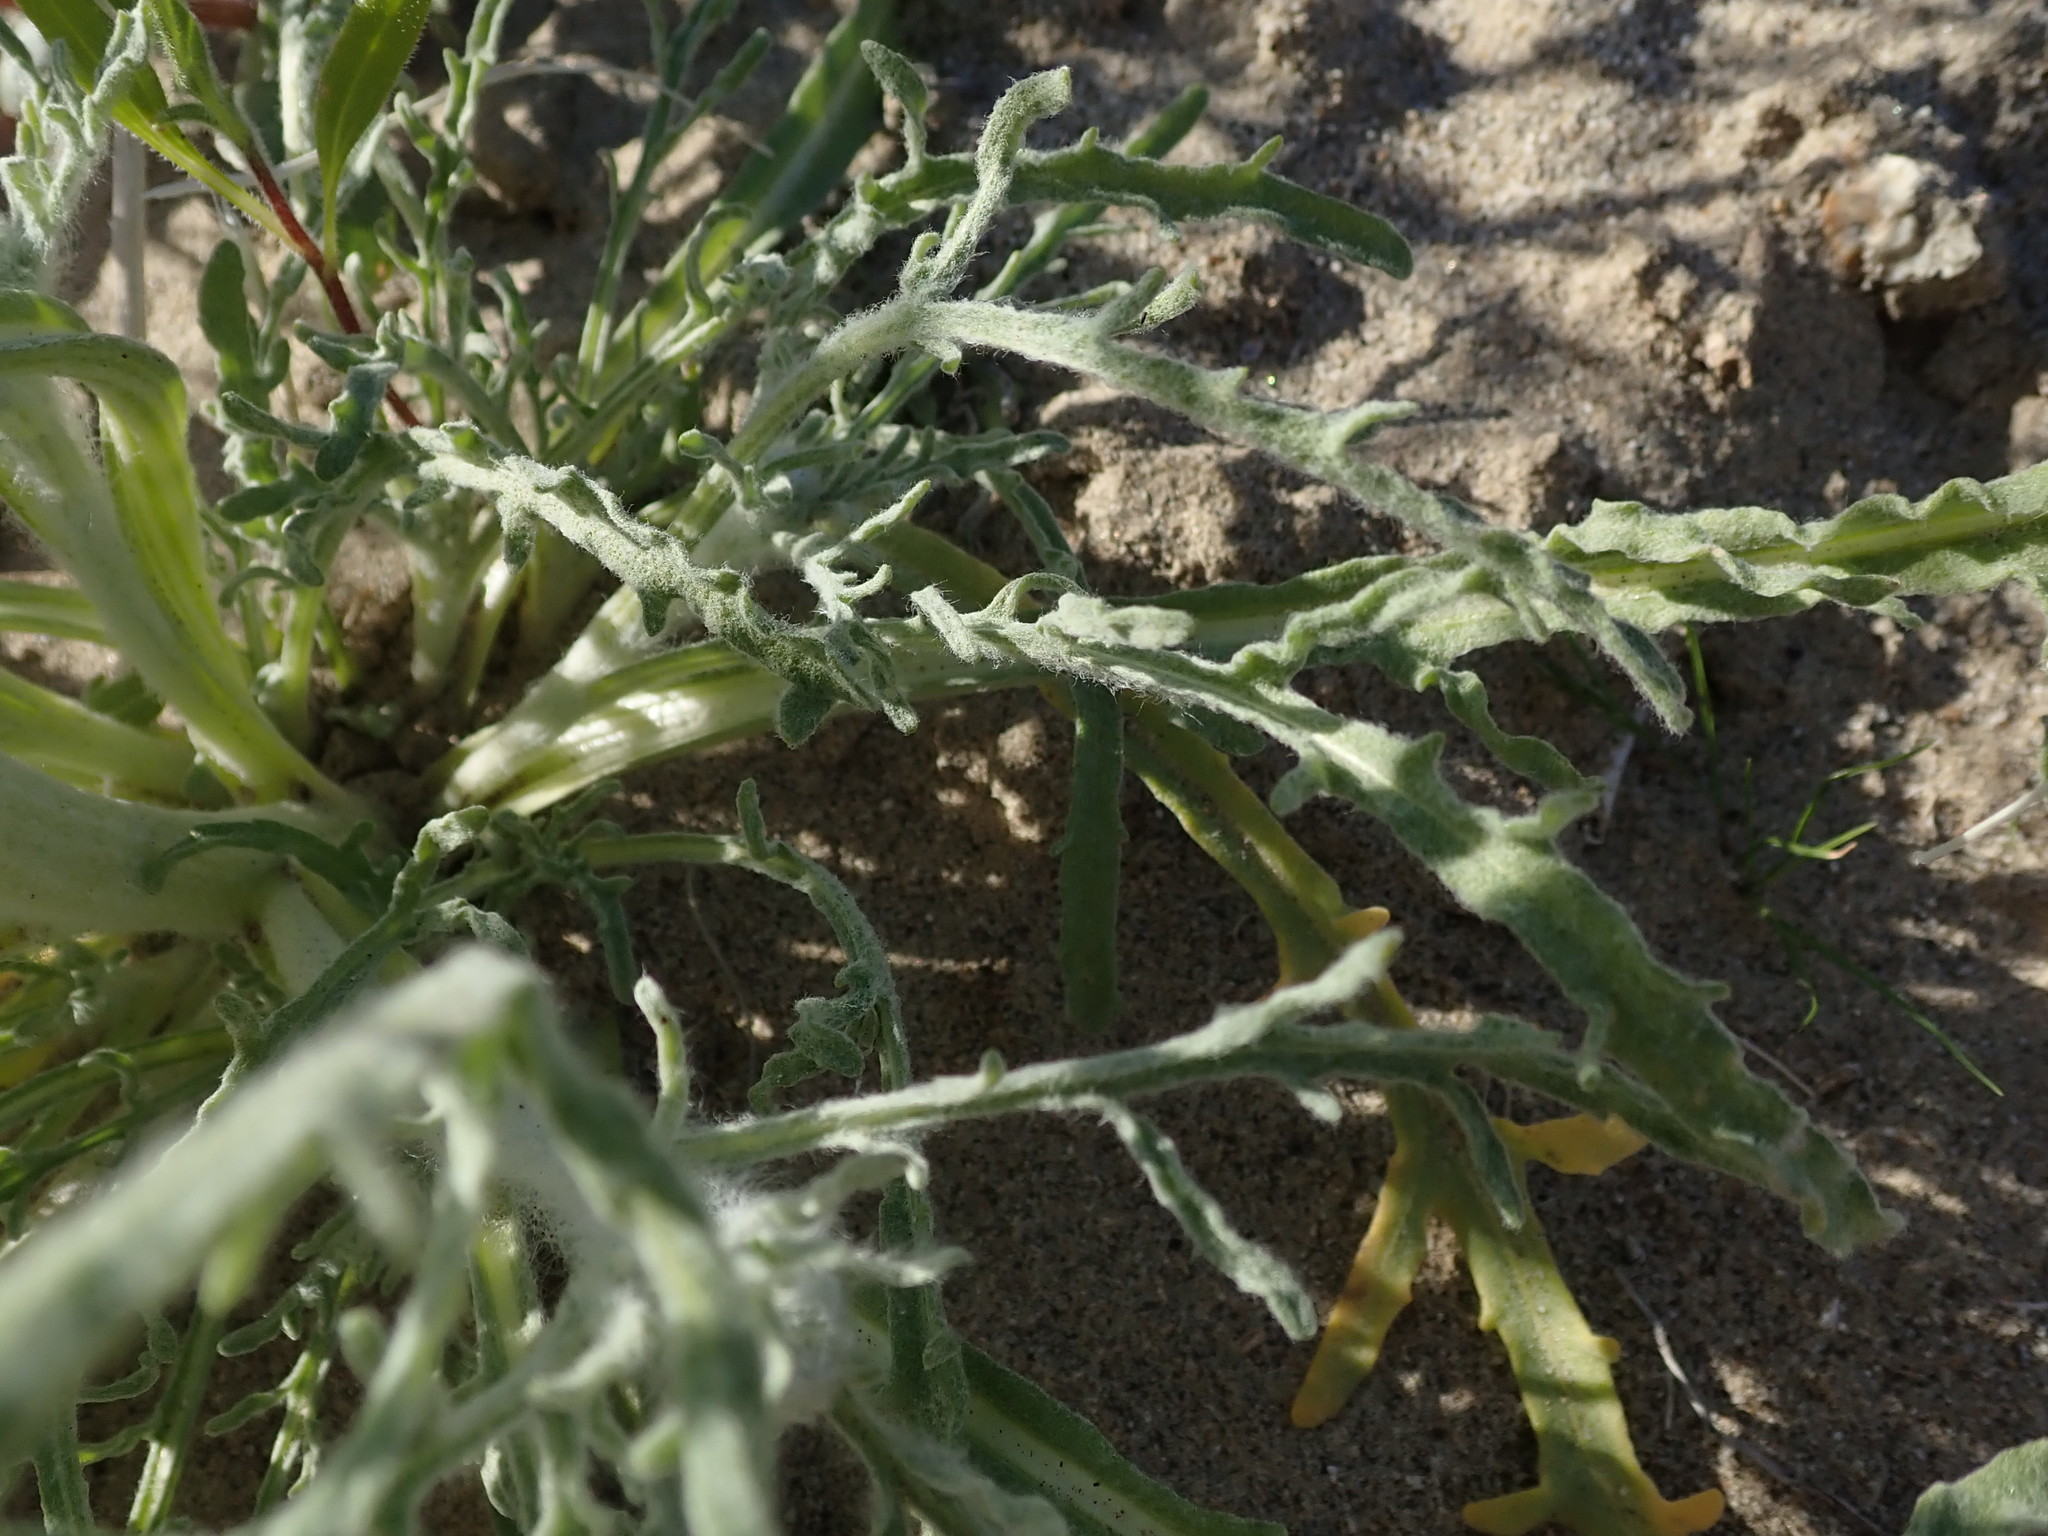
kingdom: Plantae
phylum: Tracheophyta
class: Magnoliopsida
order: Asterales
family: Asteraceae
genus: Baileya
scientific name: Baileya pauciradiata
